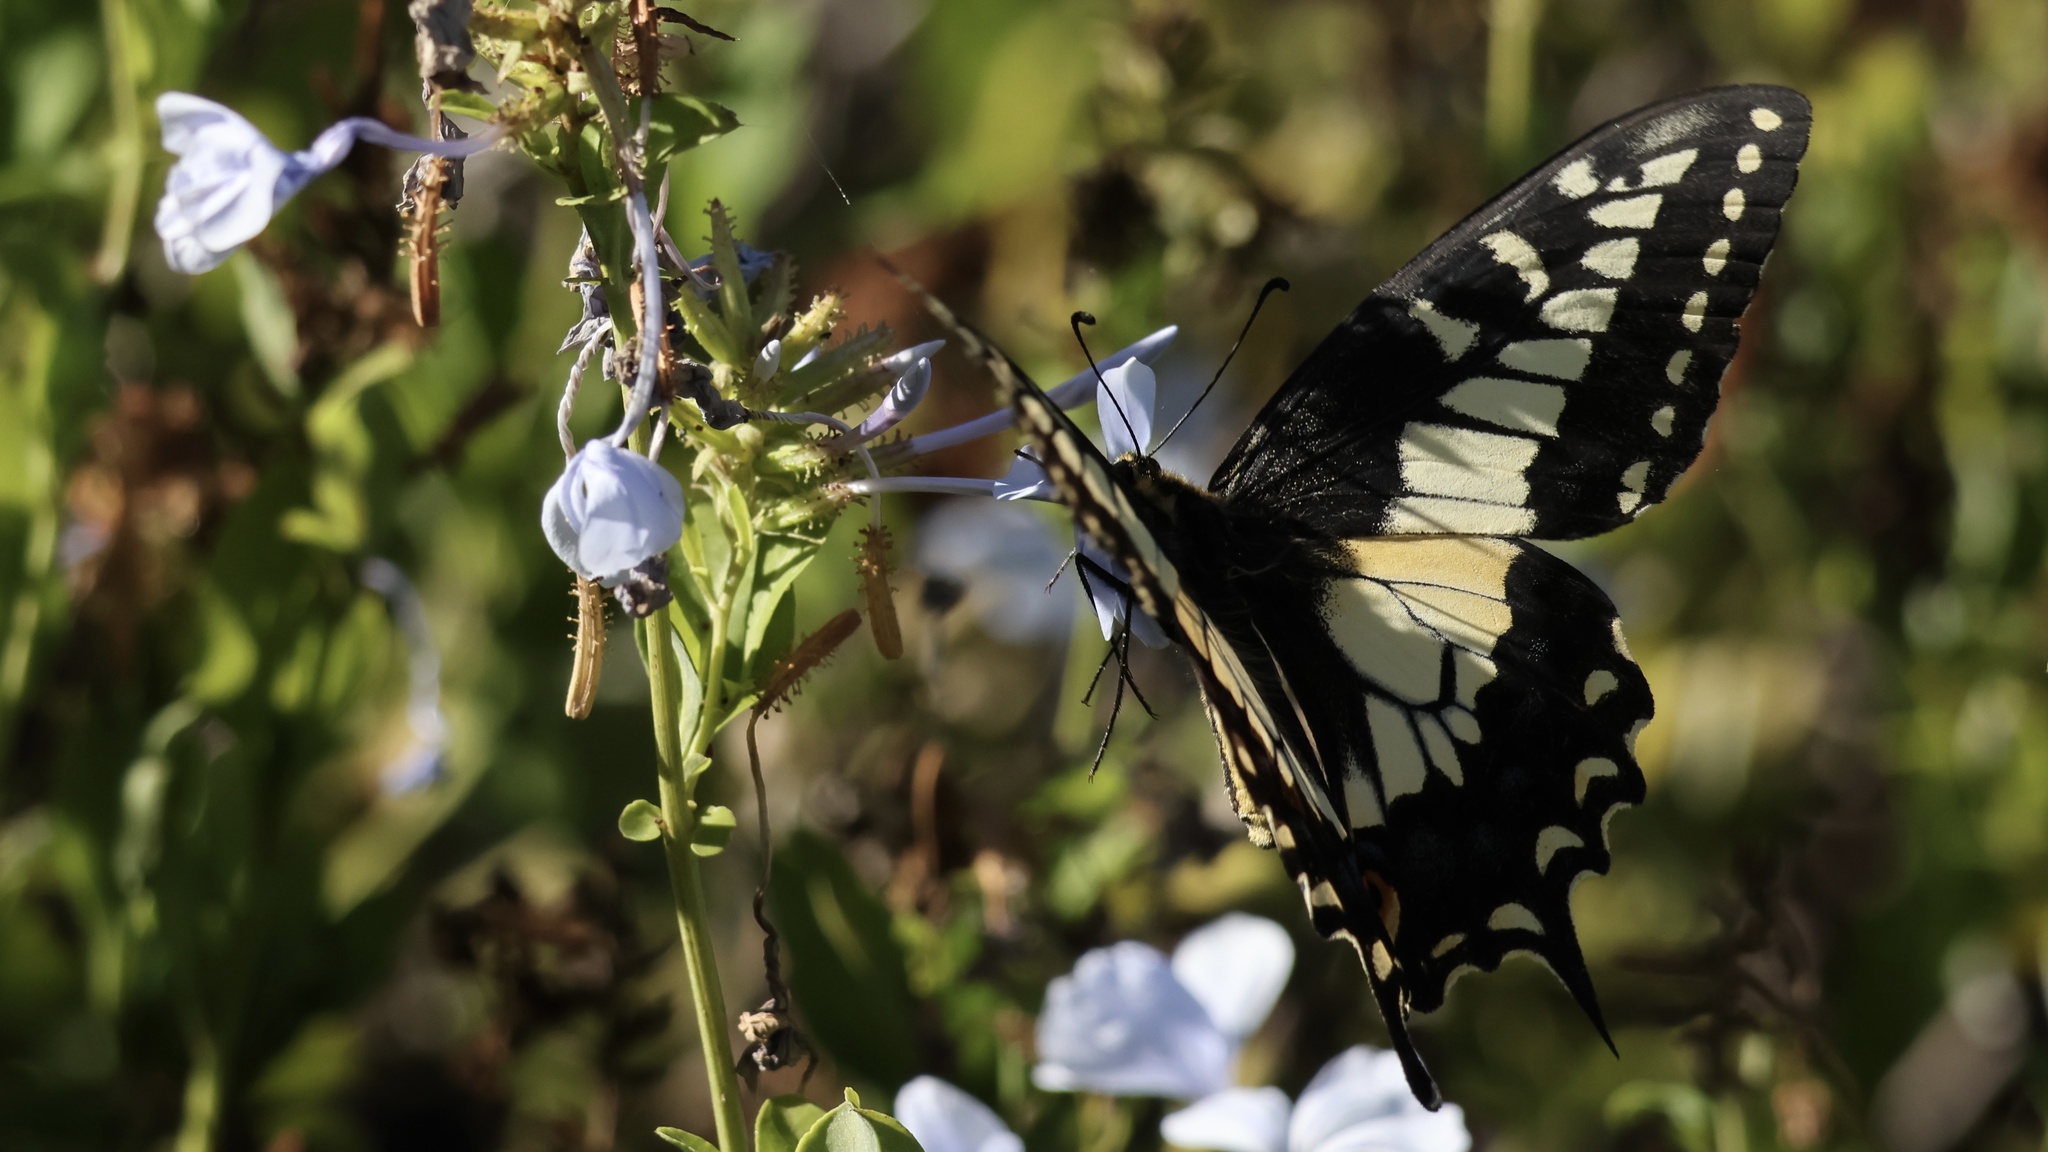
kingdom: Animalia
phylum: Arthropoda
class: Insecta
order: Lepidoptera
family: Papilionidae
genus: Papilio
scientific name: Papilio zelicaon
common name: Anise swallowtail
